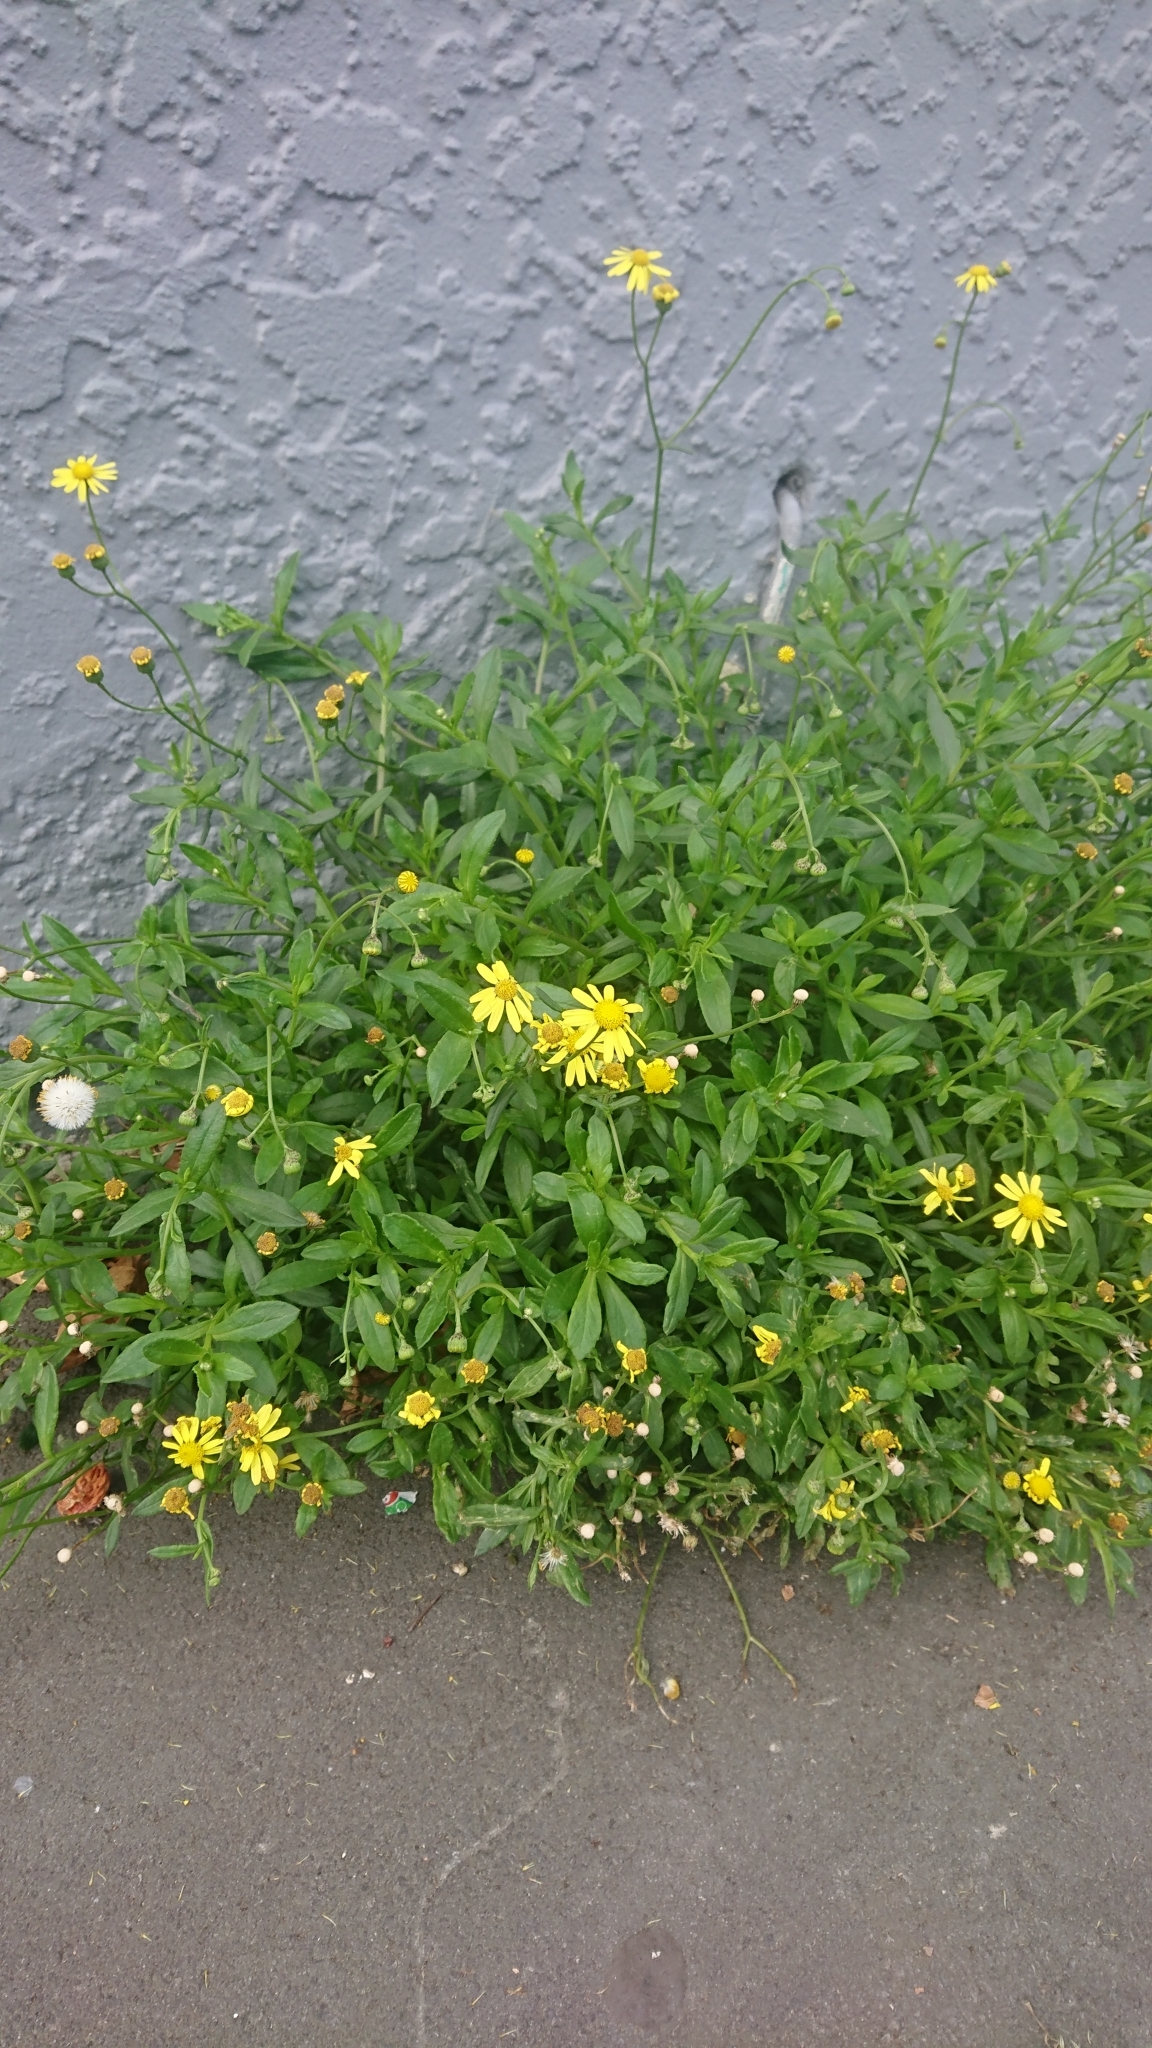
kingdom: Plantae
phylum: Tracheophyta
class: Magnoliopsida
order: Asterales
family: Asteraceae
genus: Senecio
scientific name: Senecio skirrhodon
